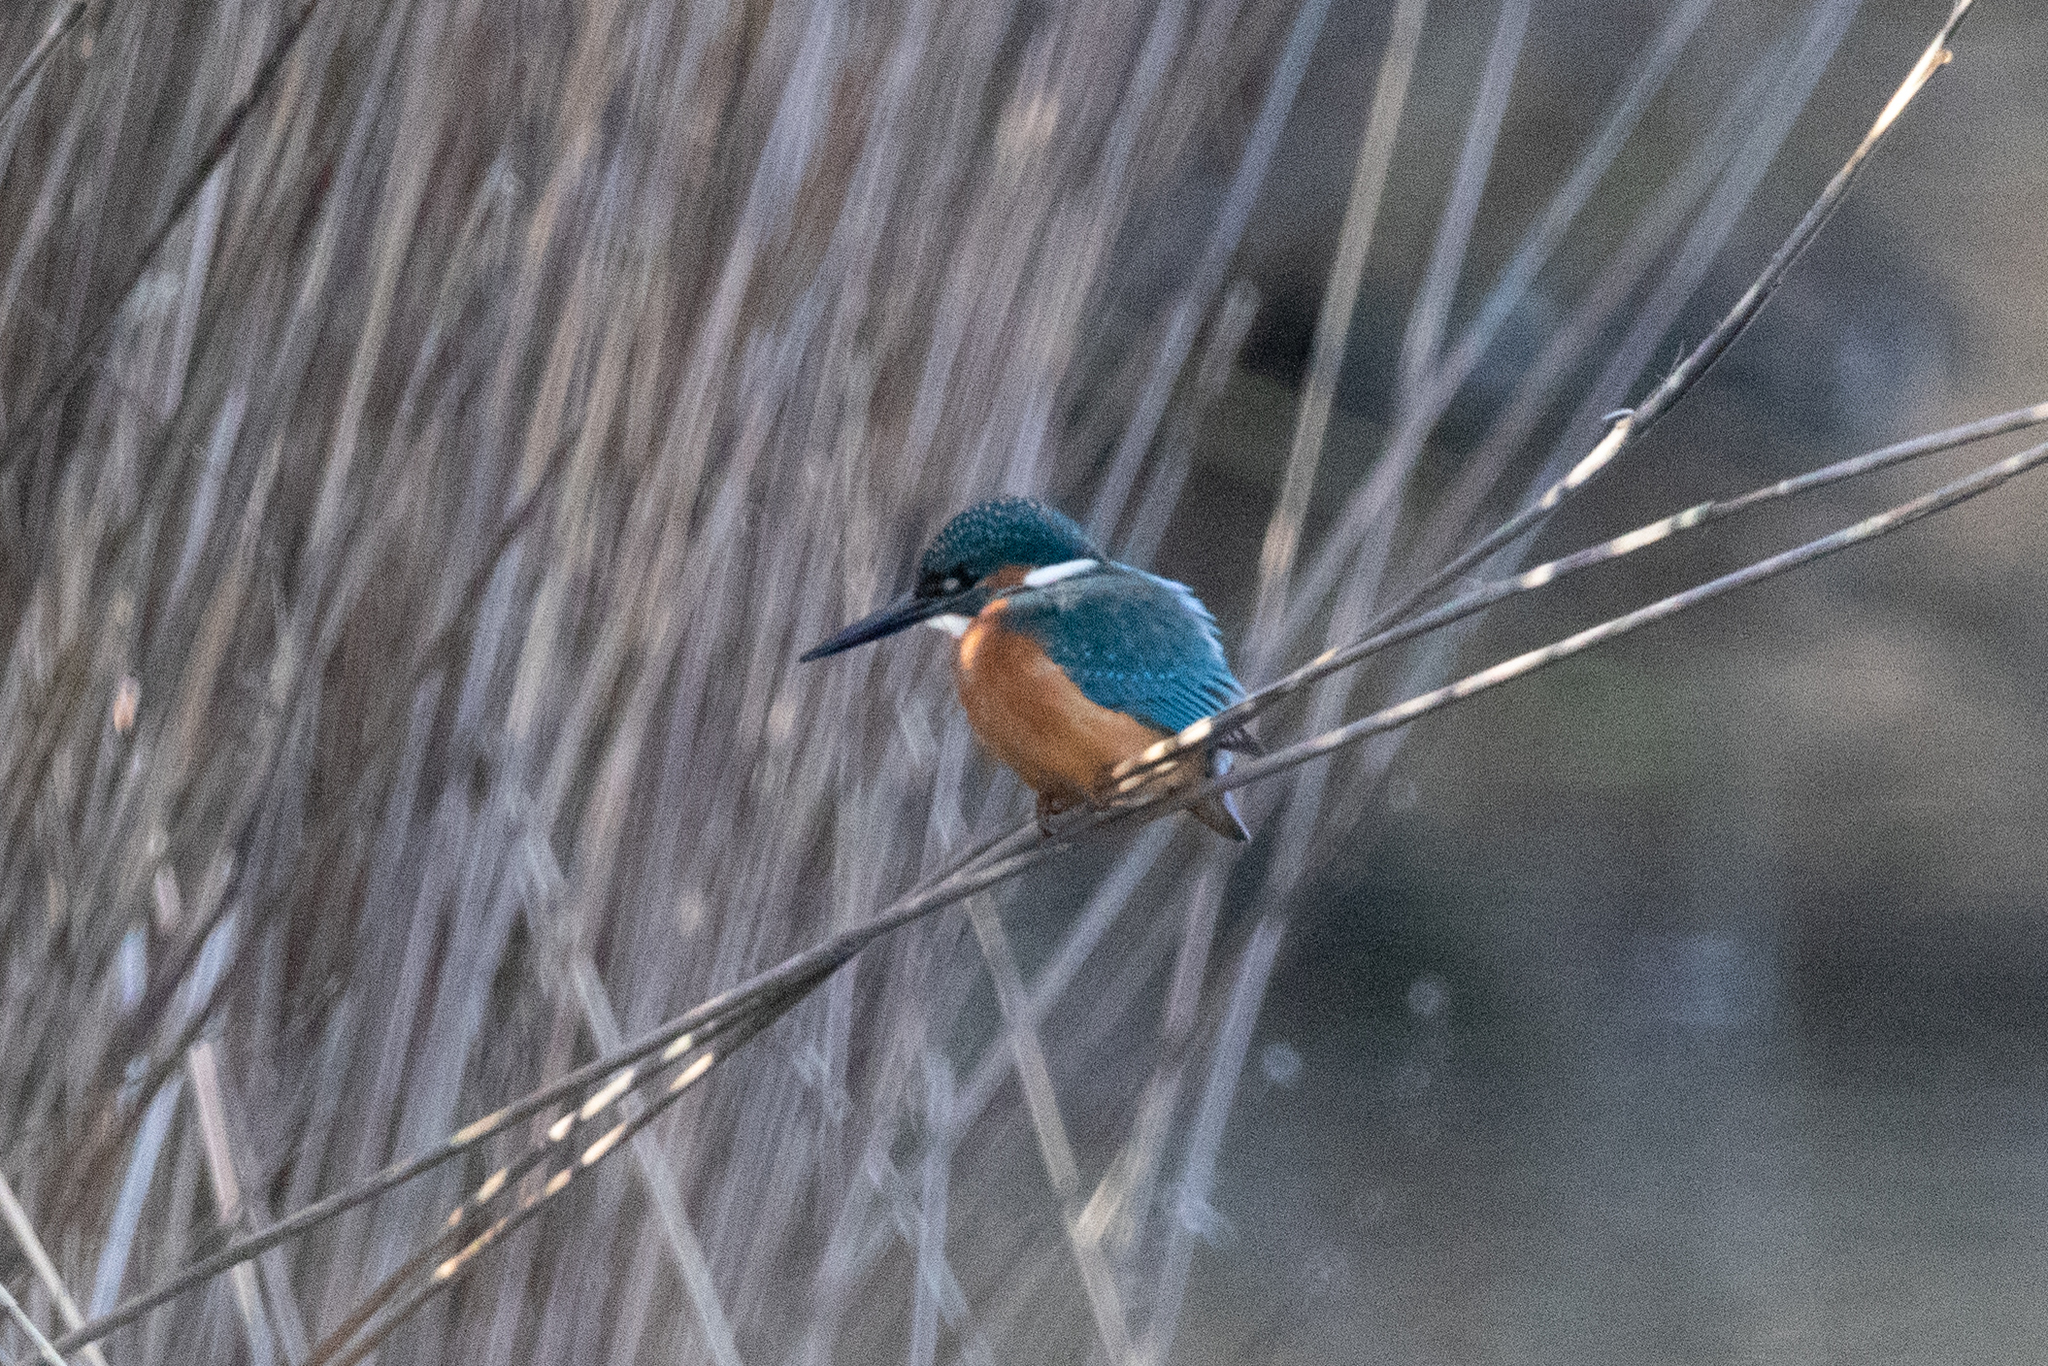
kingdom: Animalia
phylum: Chordata
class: Aves
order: Coraciiformes
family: Alcedinidae
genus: Alcedo
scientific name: Alcedo atthis
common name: Common kingfisher
